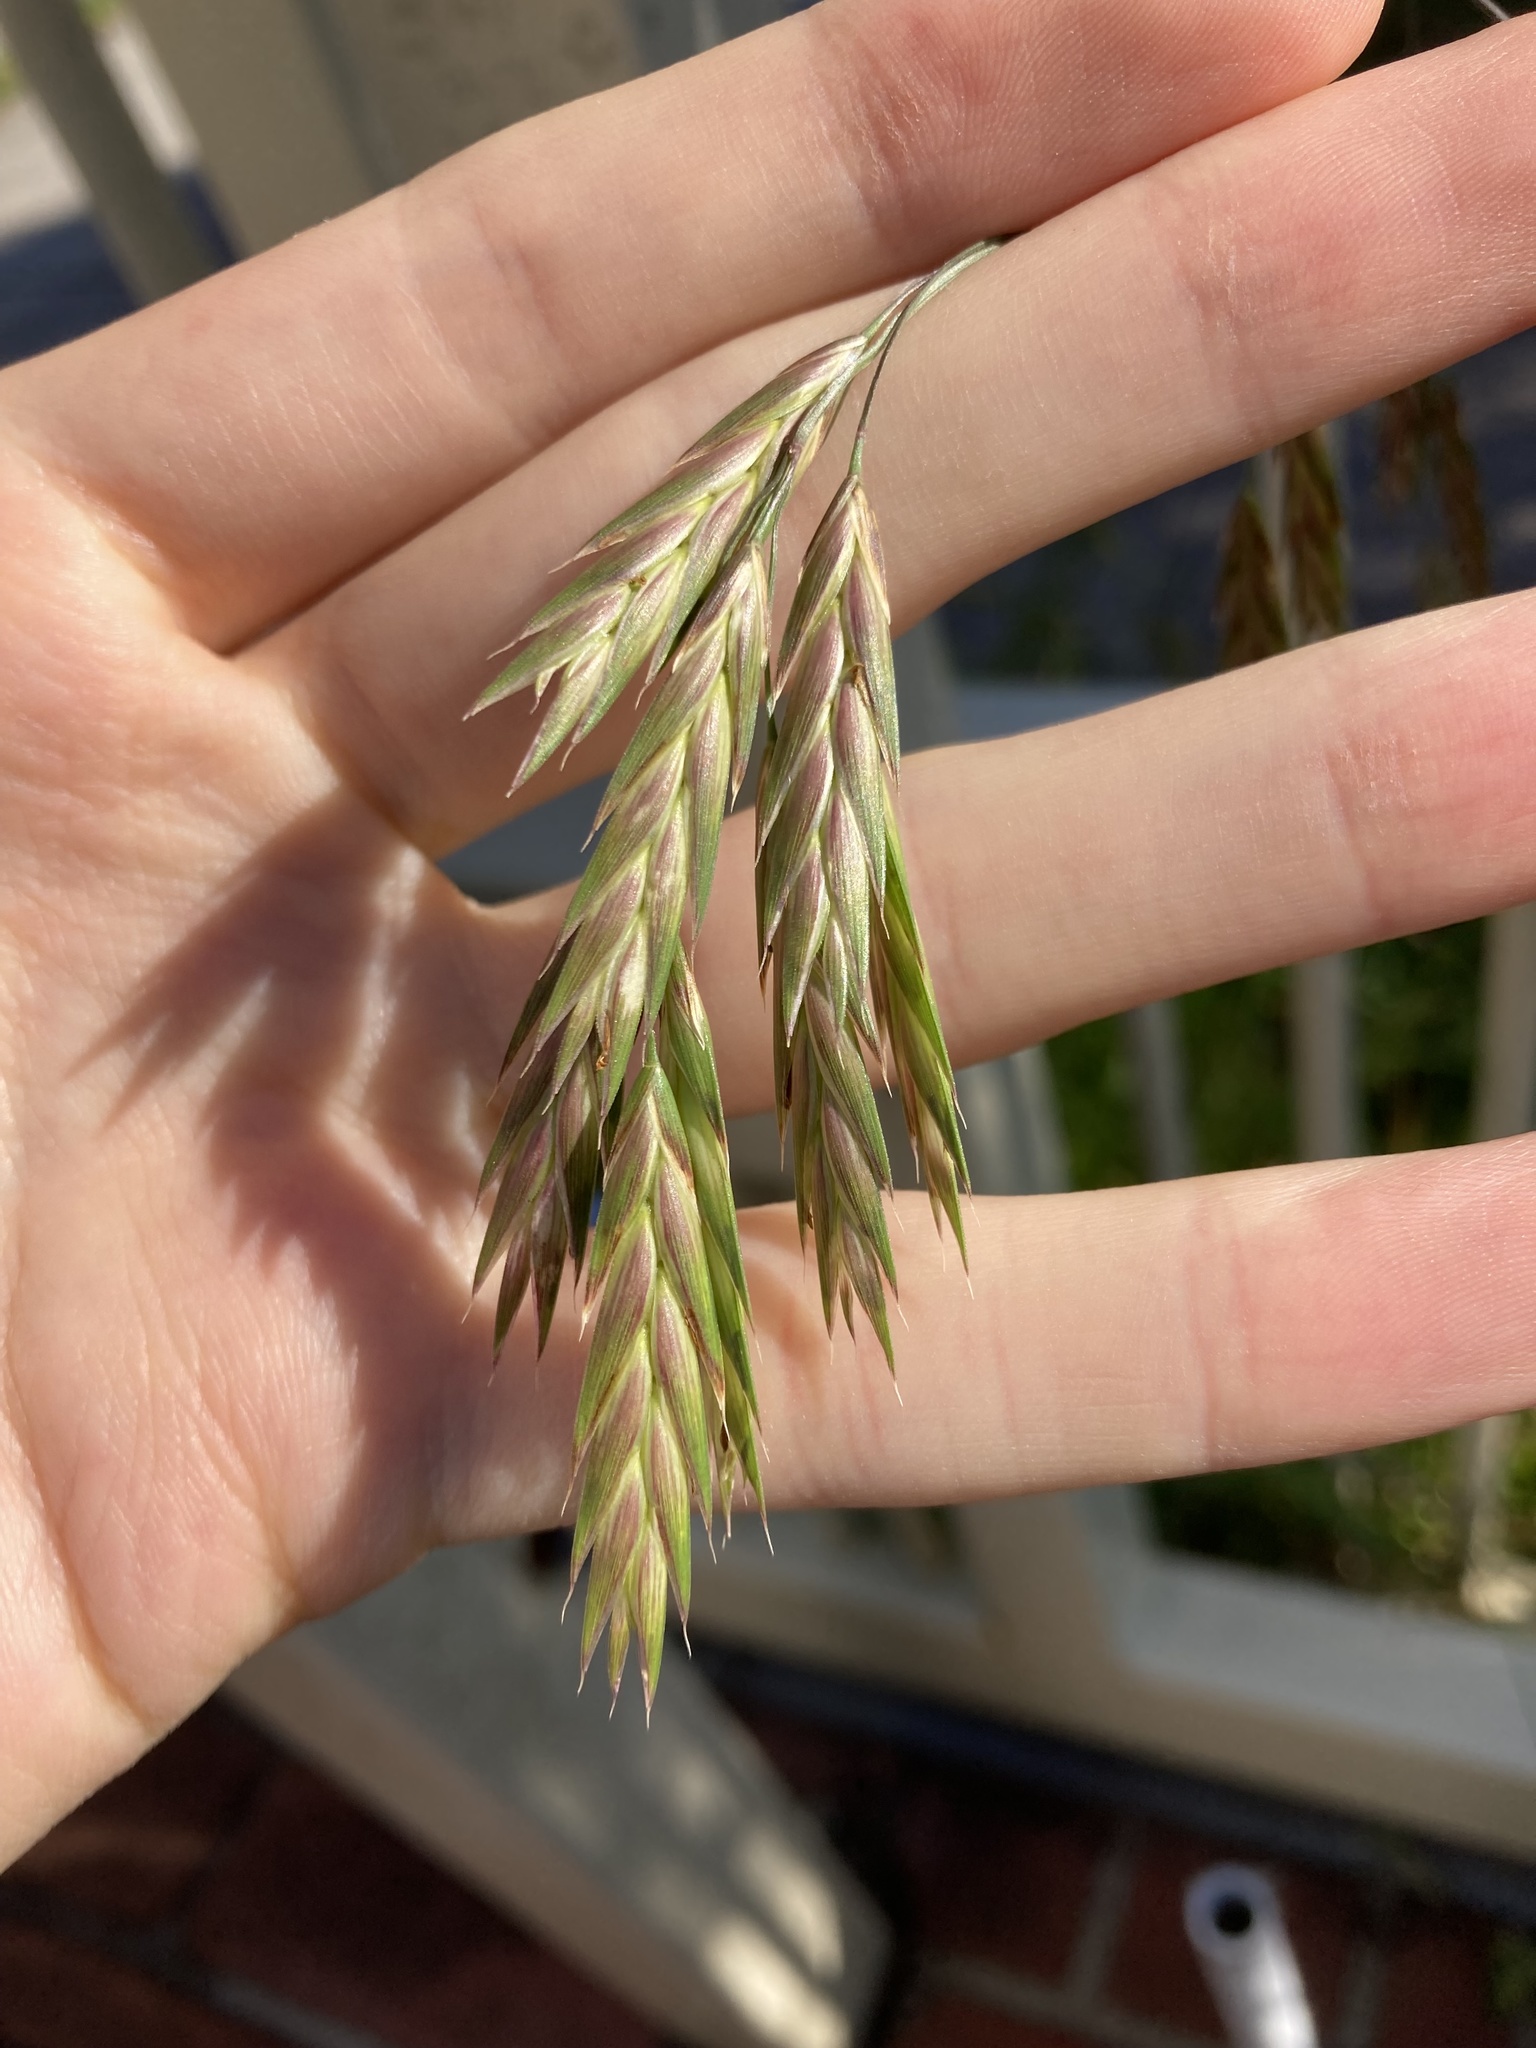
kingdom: Plantae
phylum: Tracheophyta
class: Liliopsida
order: Poales
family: Poaceae
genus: Bromus
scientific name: Bromus catharticus
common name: Rescuegrass
